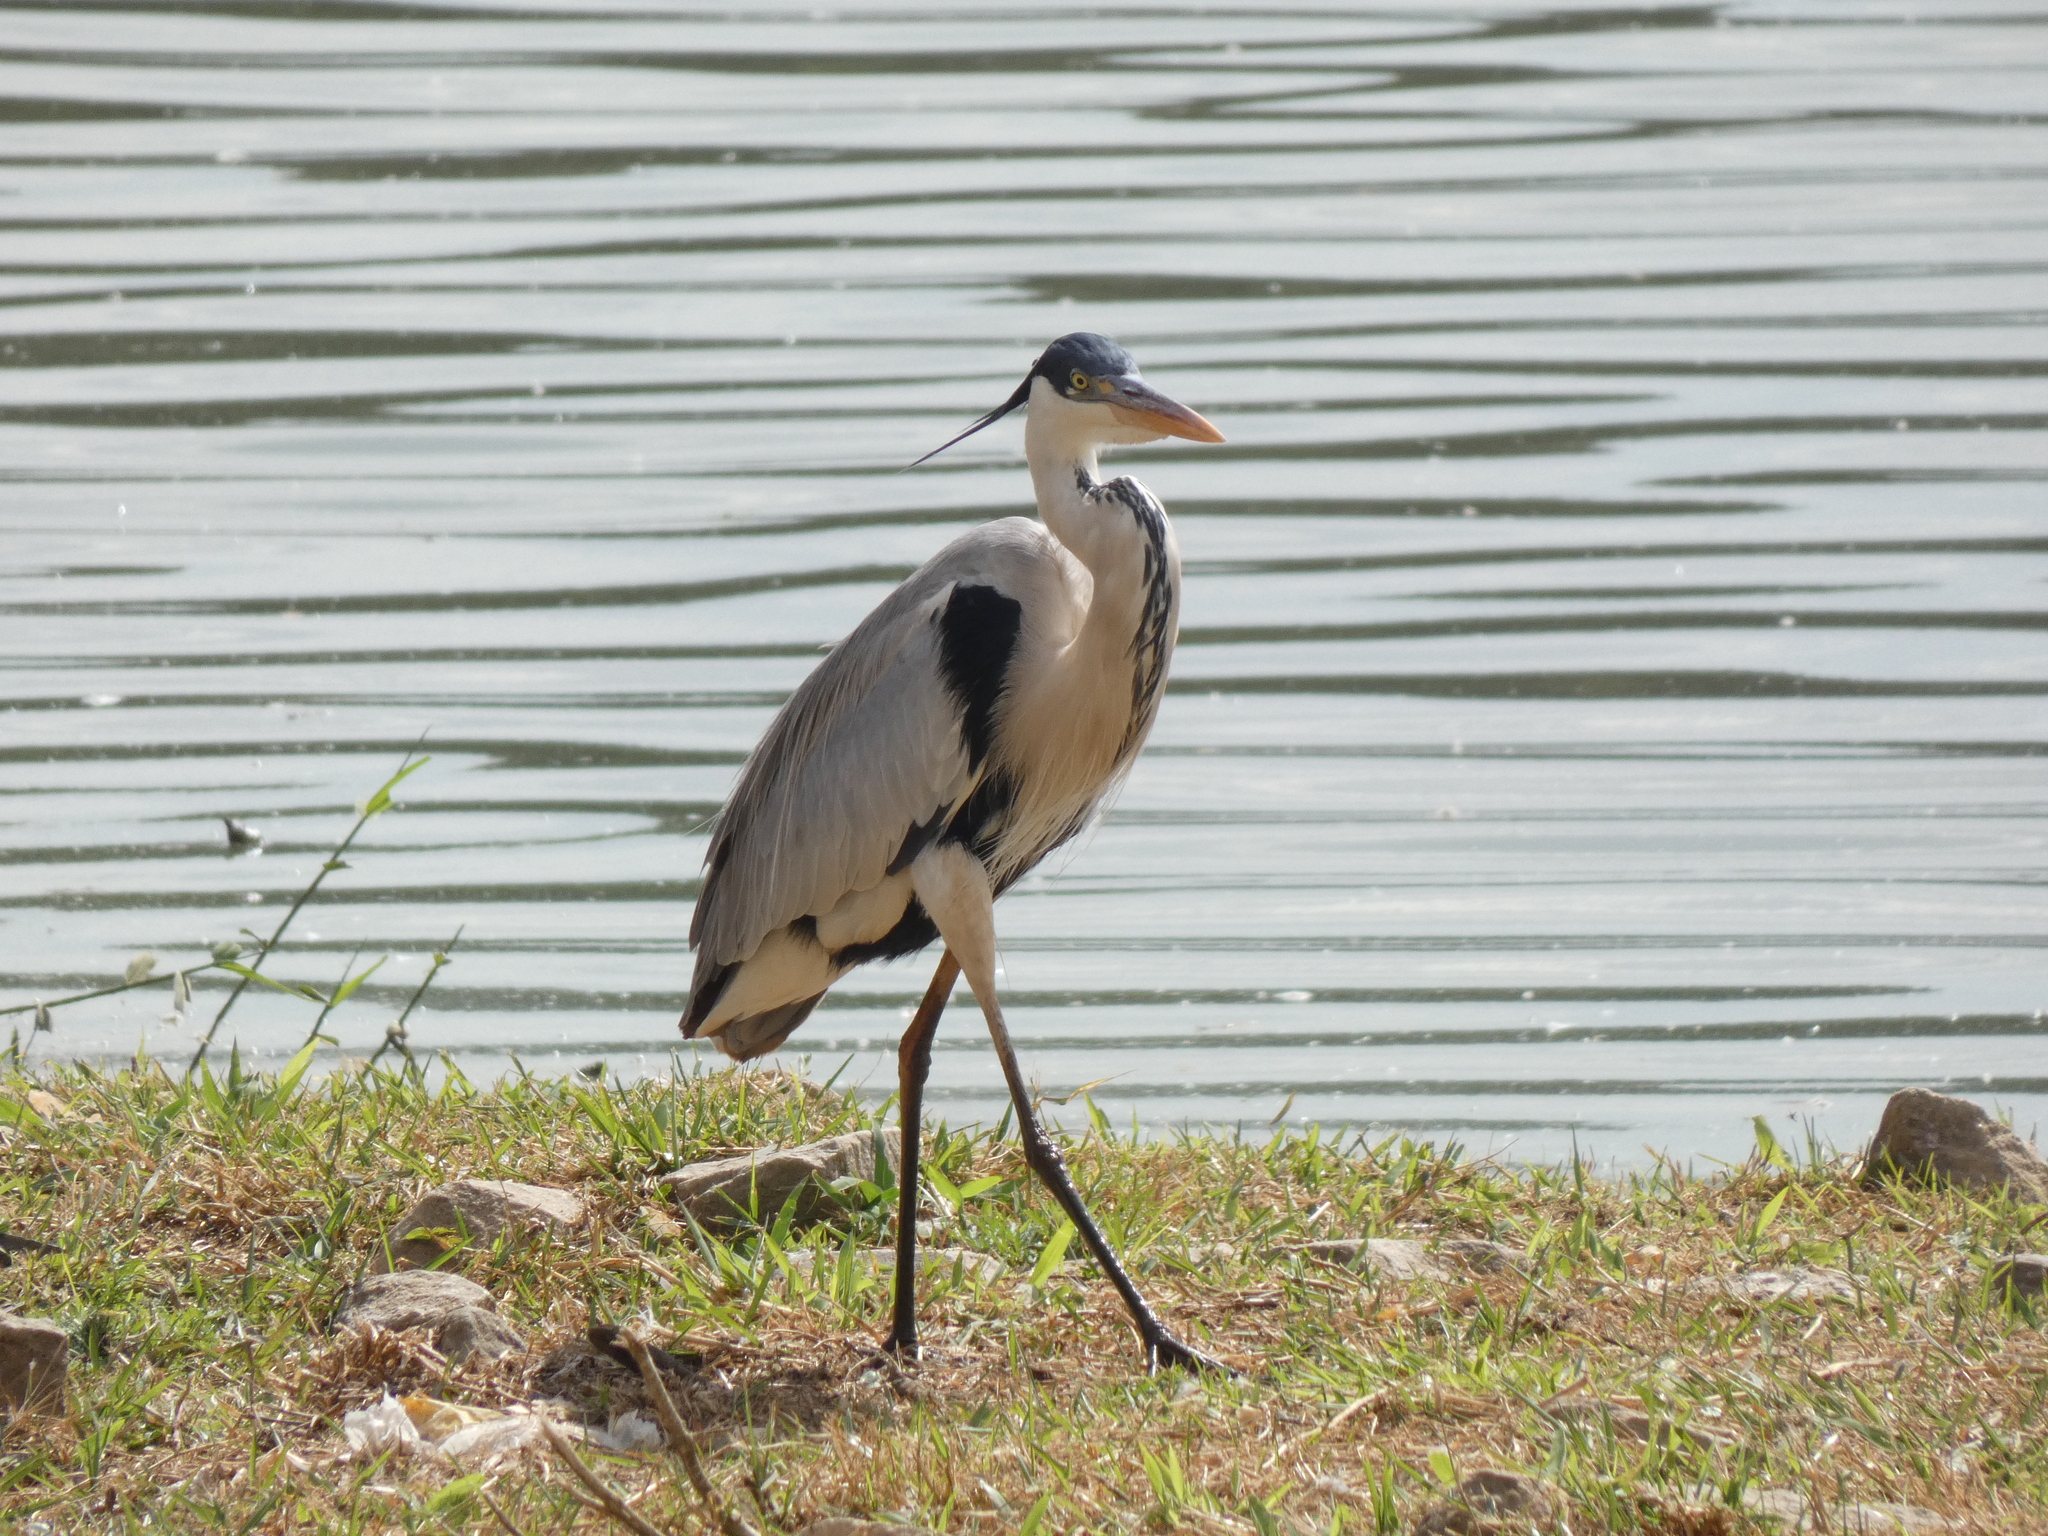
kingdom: Animalia
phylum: Chordata
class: Aves
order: Pelecaniformes
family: Ardeidae
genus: Ardea
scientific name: Ardea cocoi
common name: Cocoi heron
